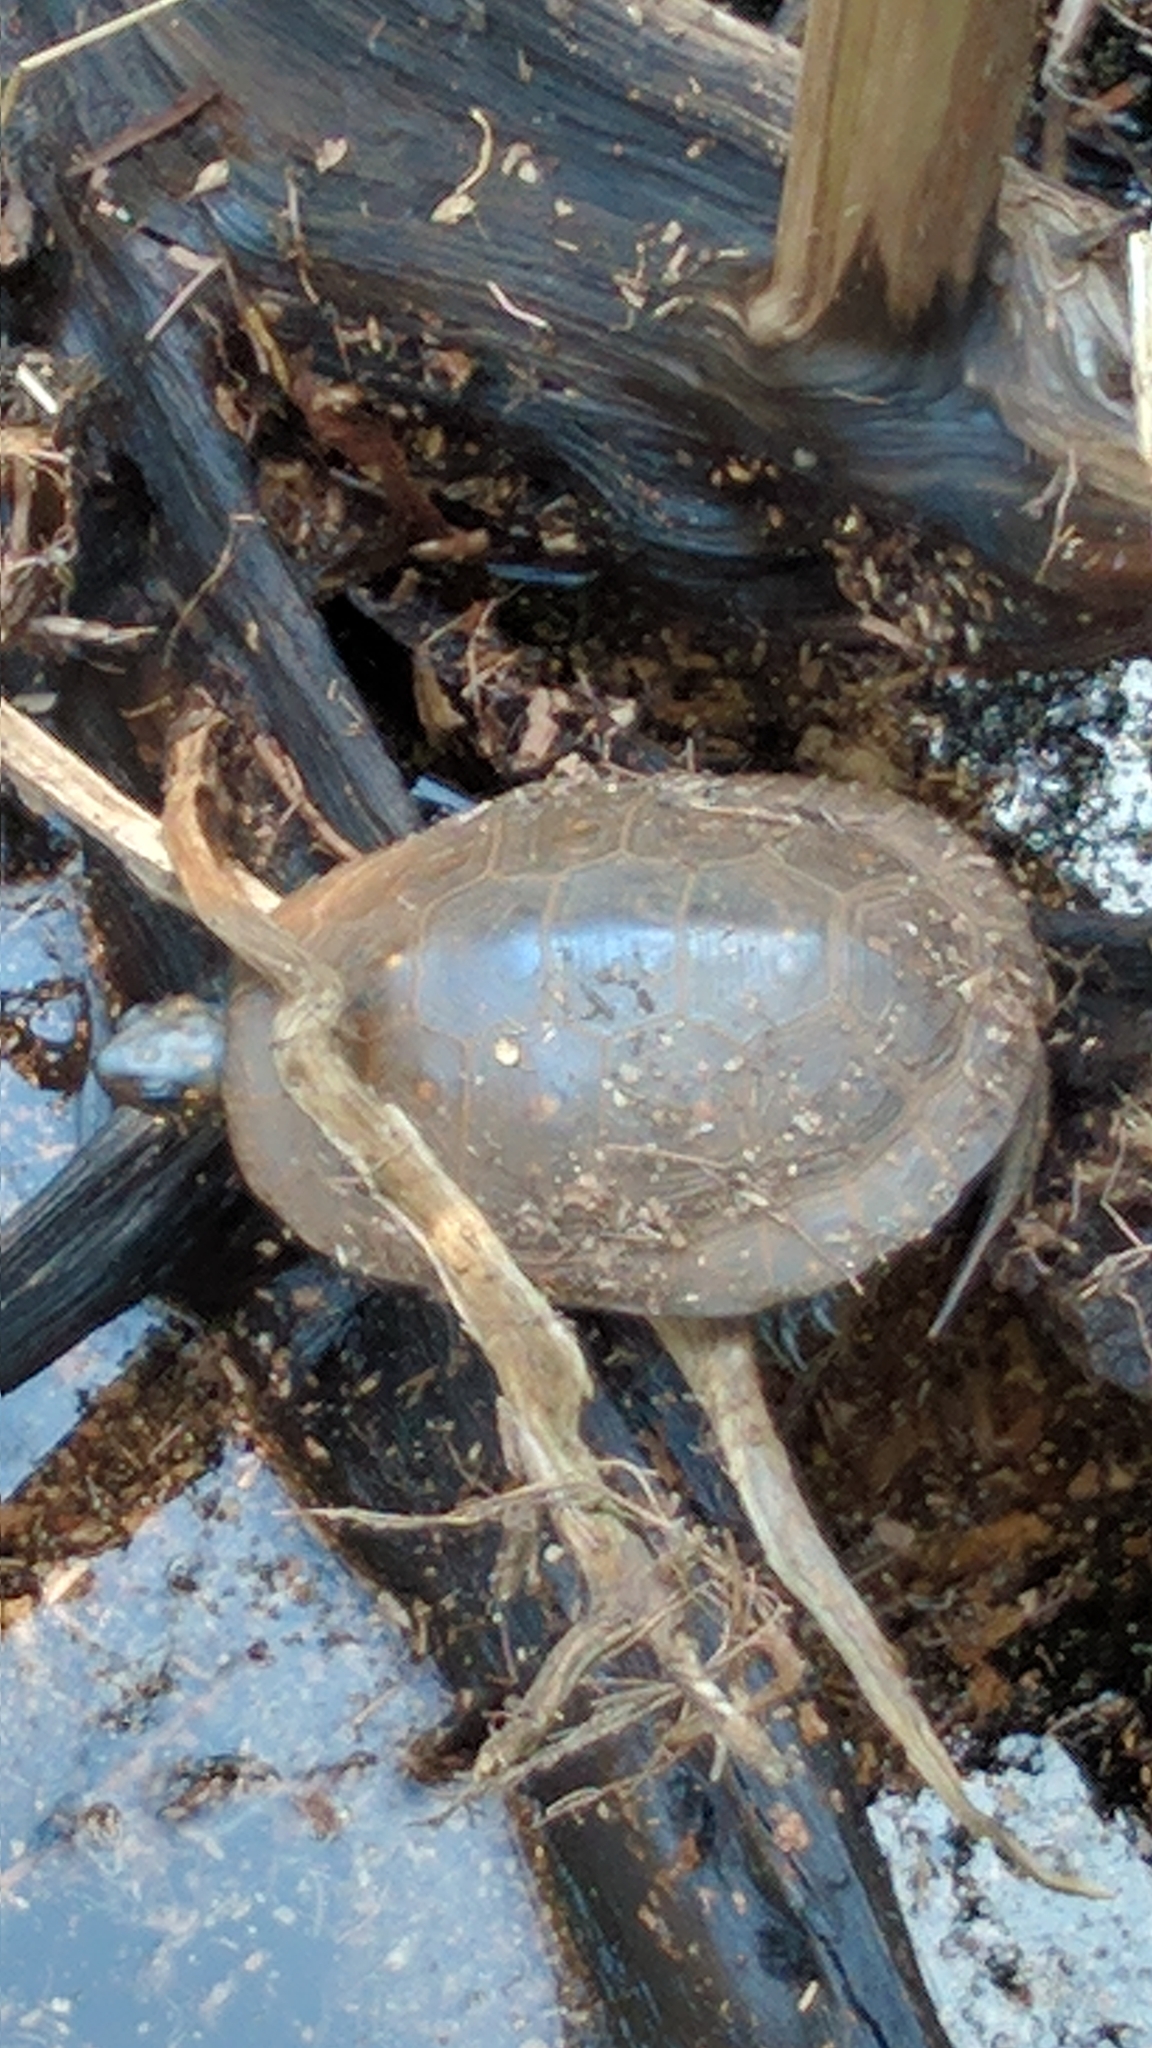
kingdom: Animalia
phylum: Chordata
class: Testudines
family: Emydidae
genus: Clemmys
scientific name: Clemmys guttata
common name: Spotted turtle
